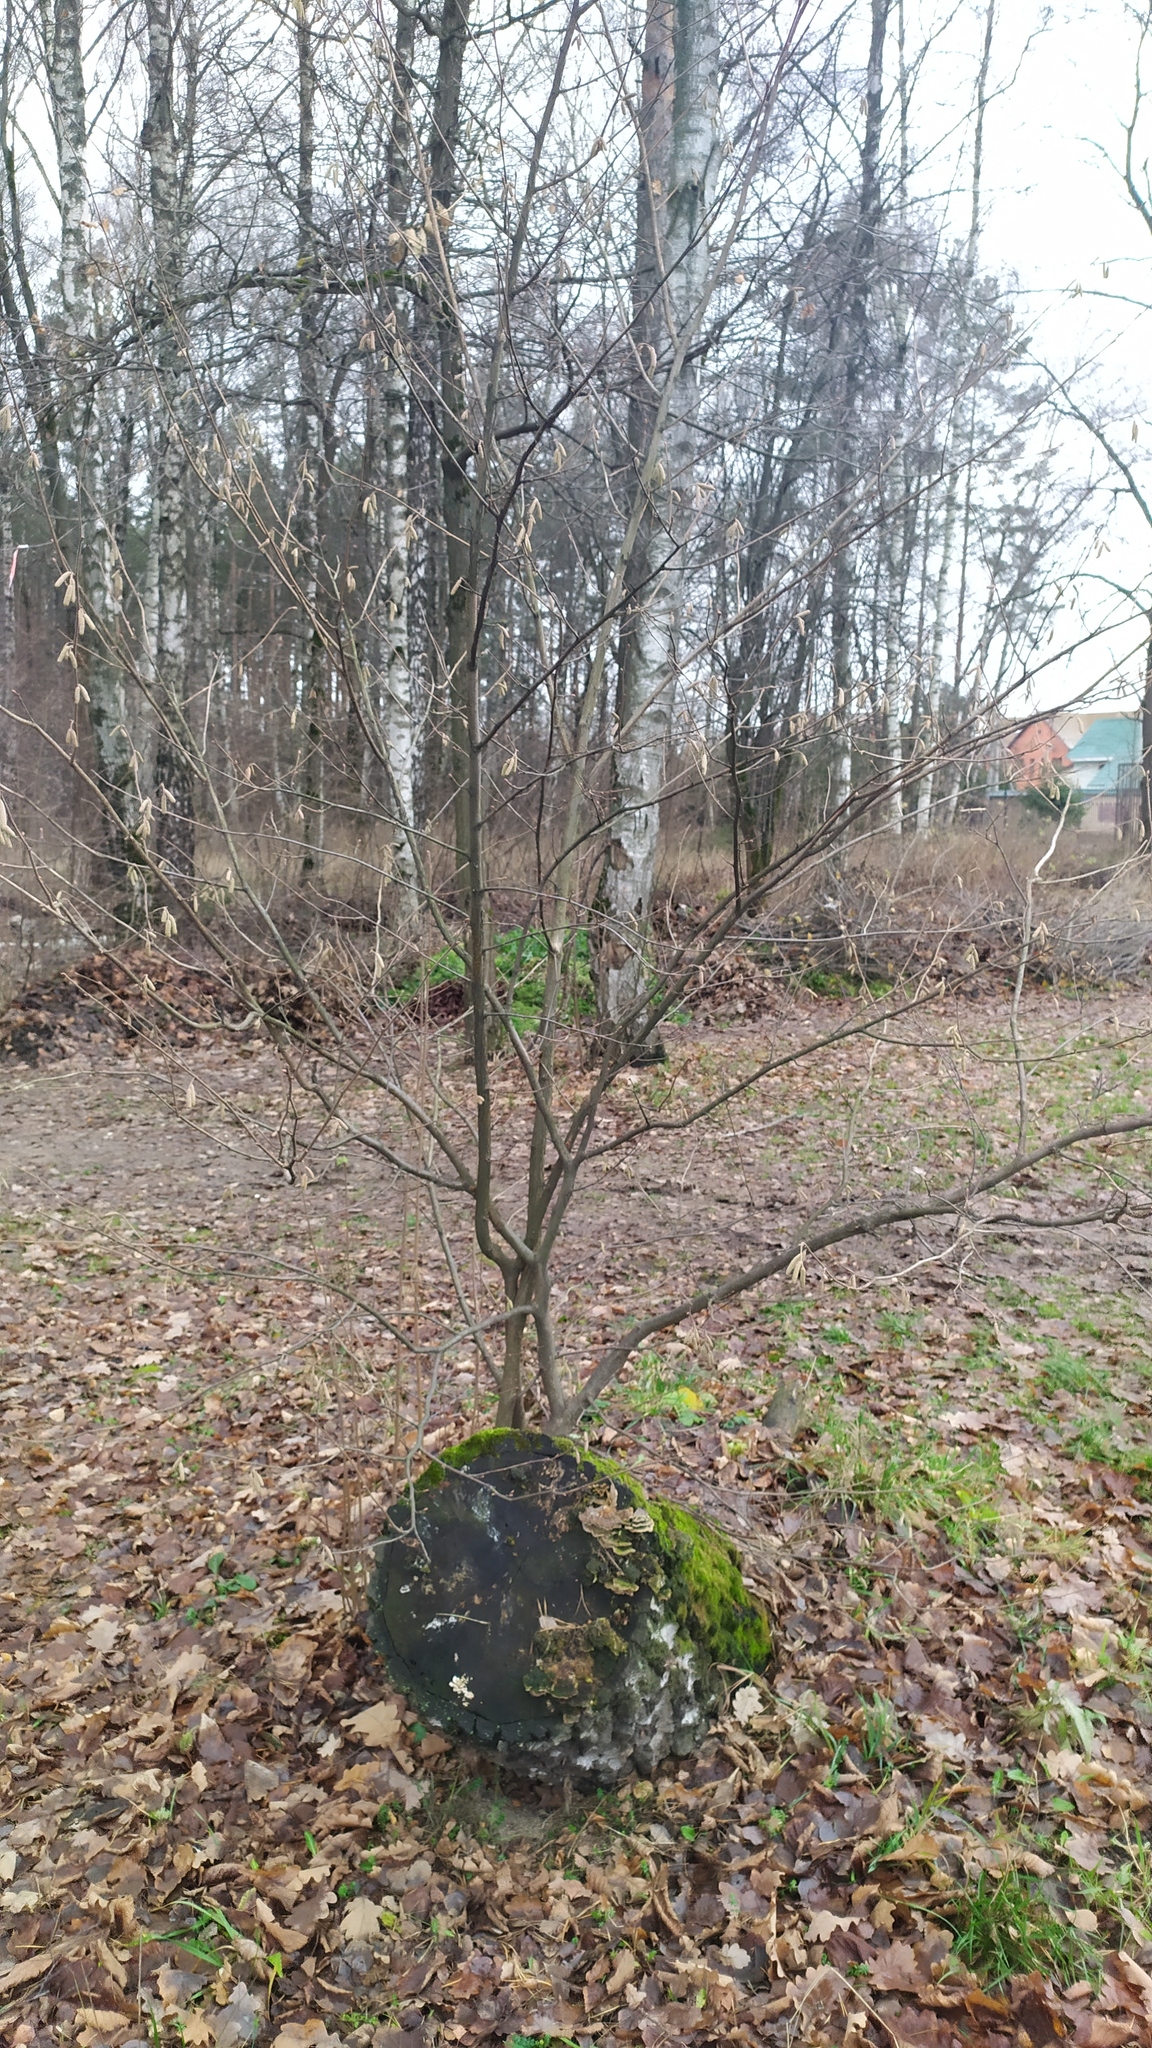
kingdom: Plantae
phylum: Tracheophyta
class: Magnoliopsida
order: Fagales
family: Betulaceae
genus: Corylus
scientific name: Corylus avellana
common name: European hazel
